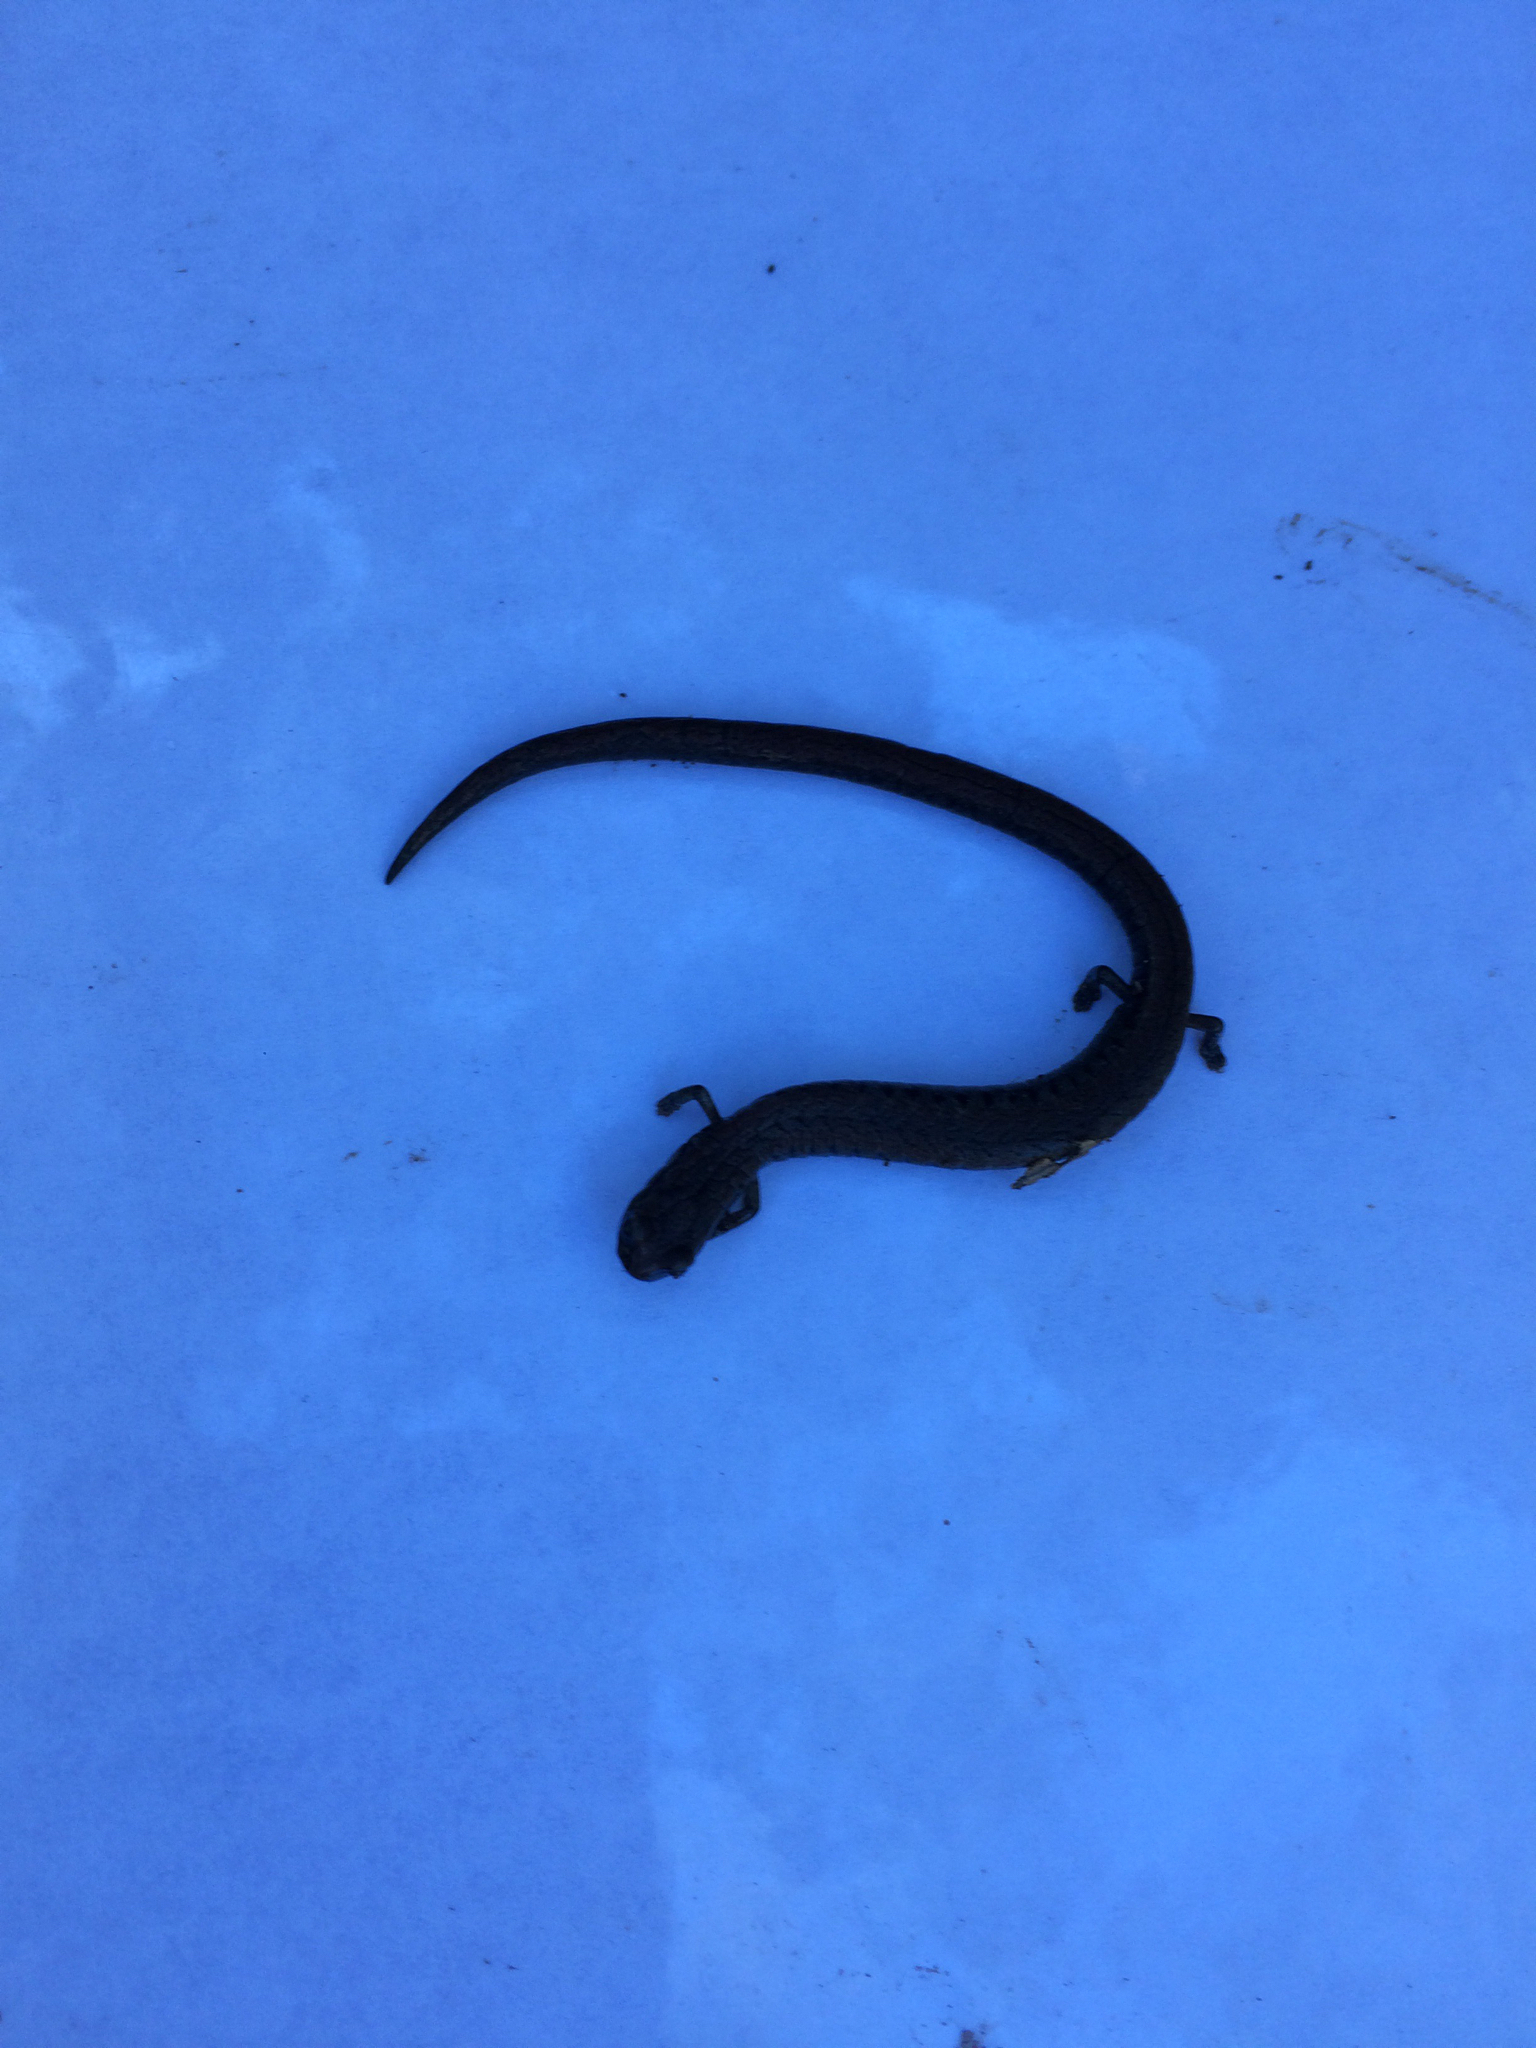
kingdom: Animalia
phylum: Chordata
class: Amphibia
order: Caudata
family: Plethodontidae
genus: Batrachoseps
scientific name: Batrachoseps attenuatus
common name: California slender salamander
